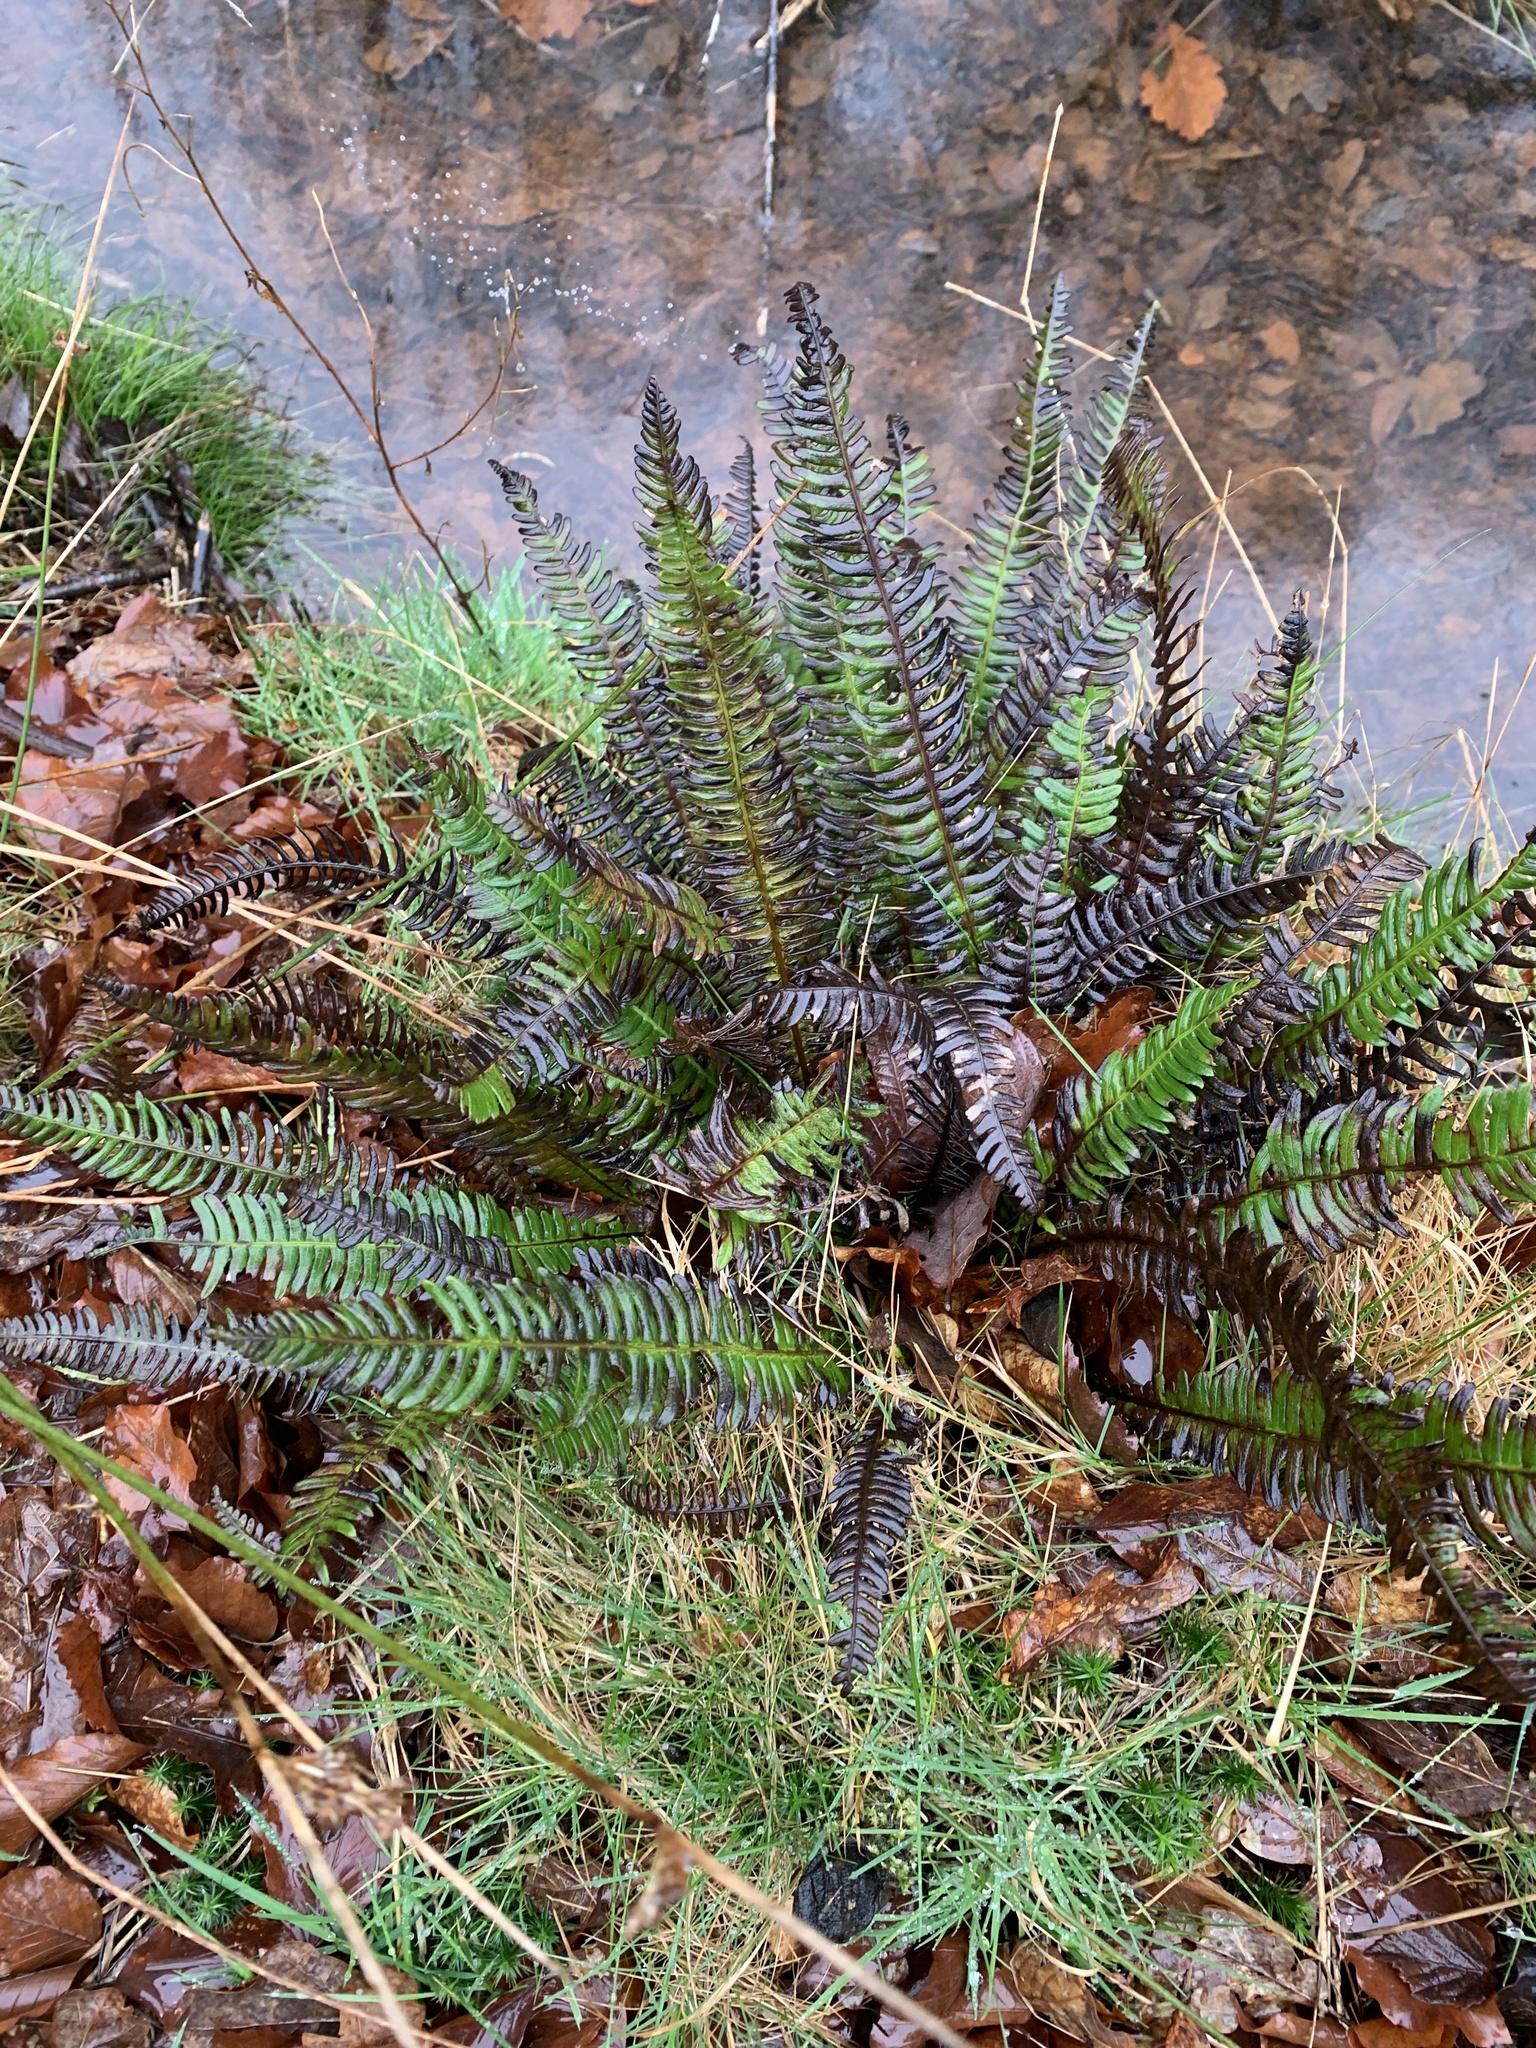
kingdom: Plantae
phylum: Tracheophyta
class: Polypodiopsida
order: Polypodiales
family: Blechnaceae
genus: Struthiopteris
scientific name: Struthiopteris spicant
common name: Deer fern
